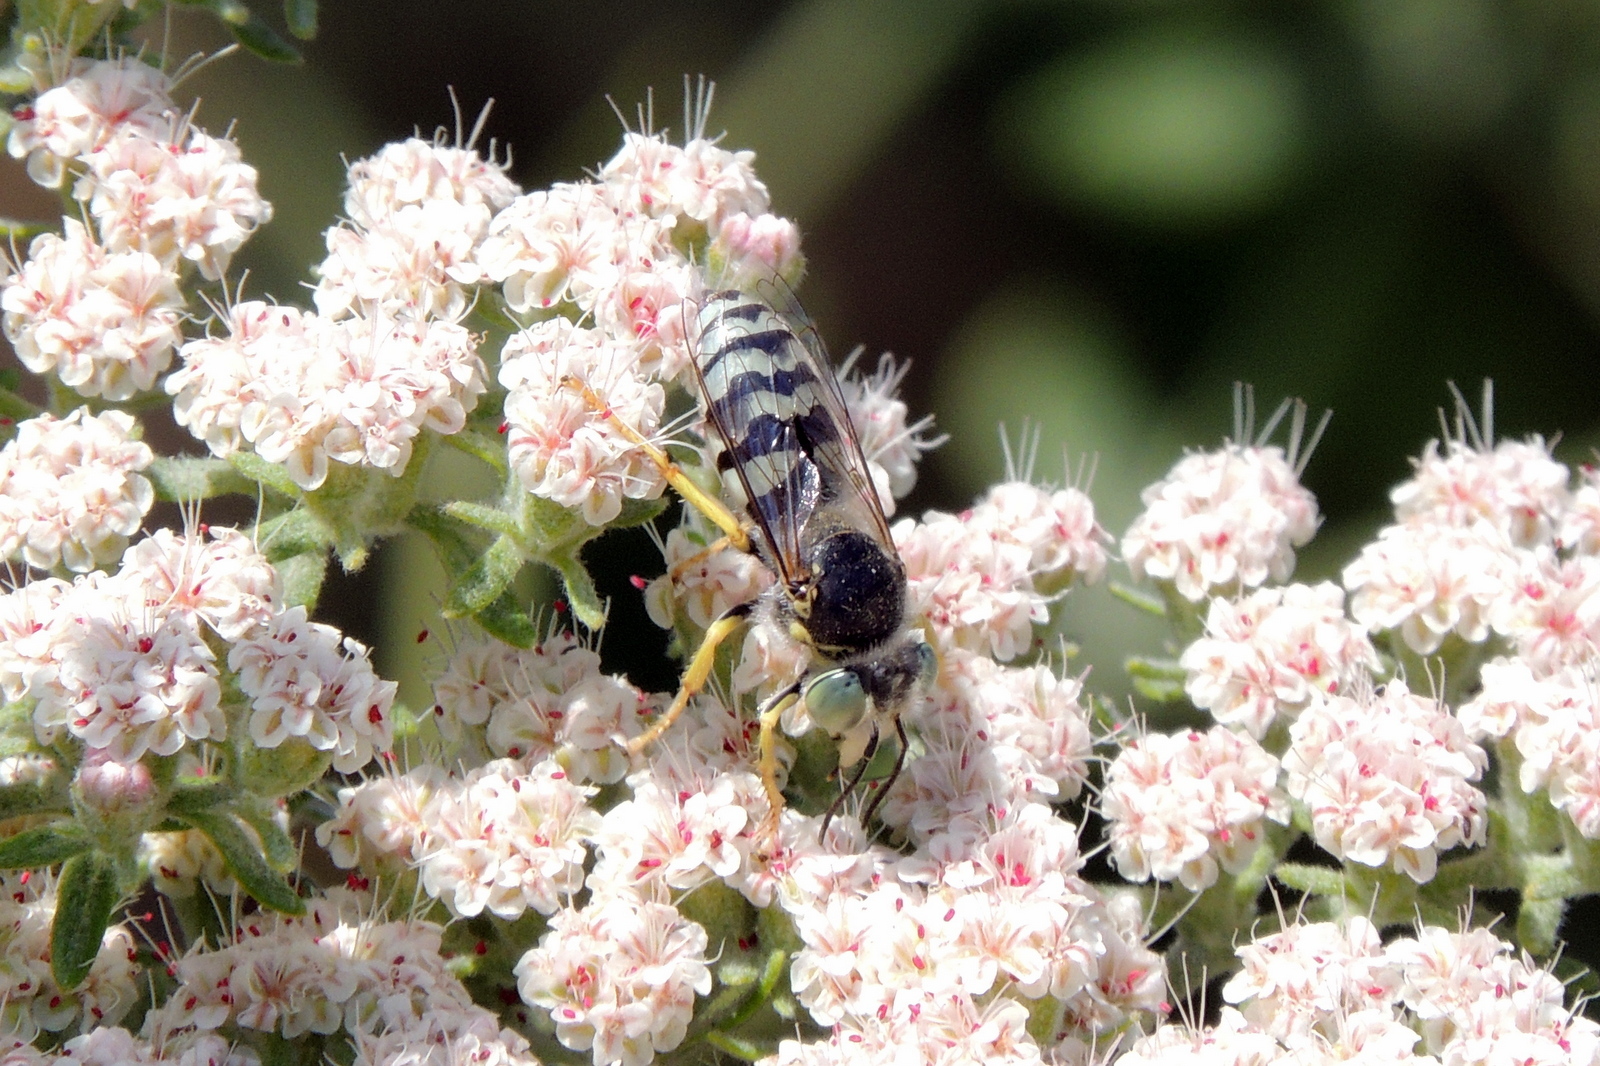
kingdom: Animalia
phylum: Arthropoda
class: Insecta
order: Hymenoptera
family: Crabronidae
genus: Bembix
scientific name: Bembix americana
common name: American sand wasp
